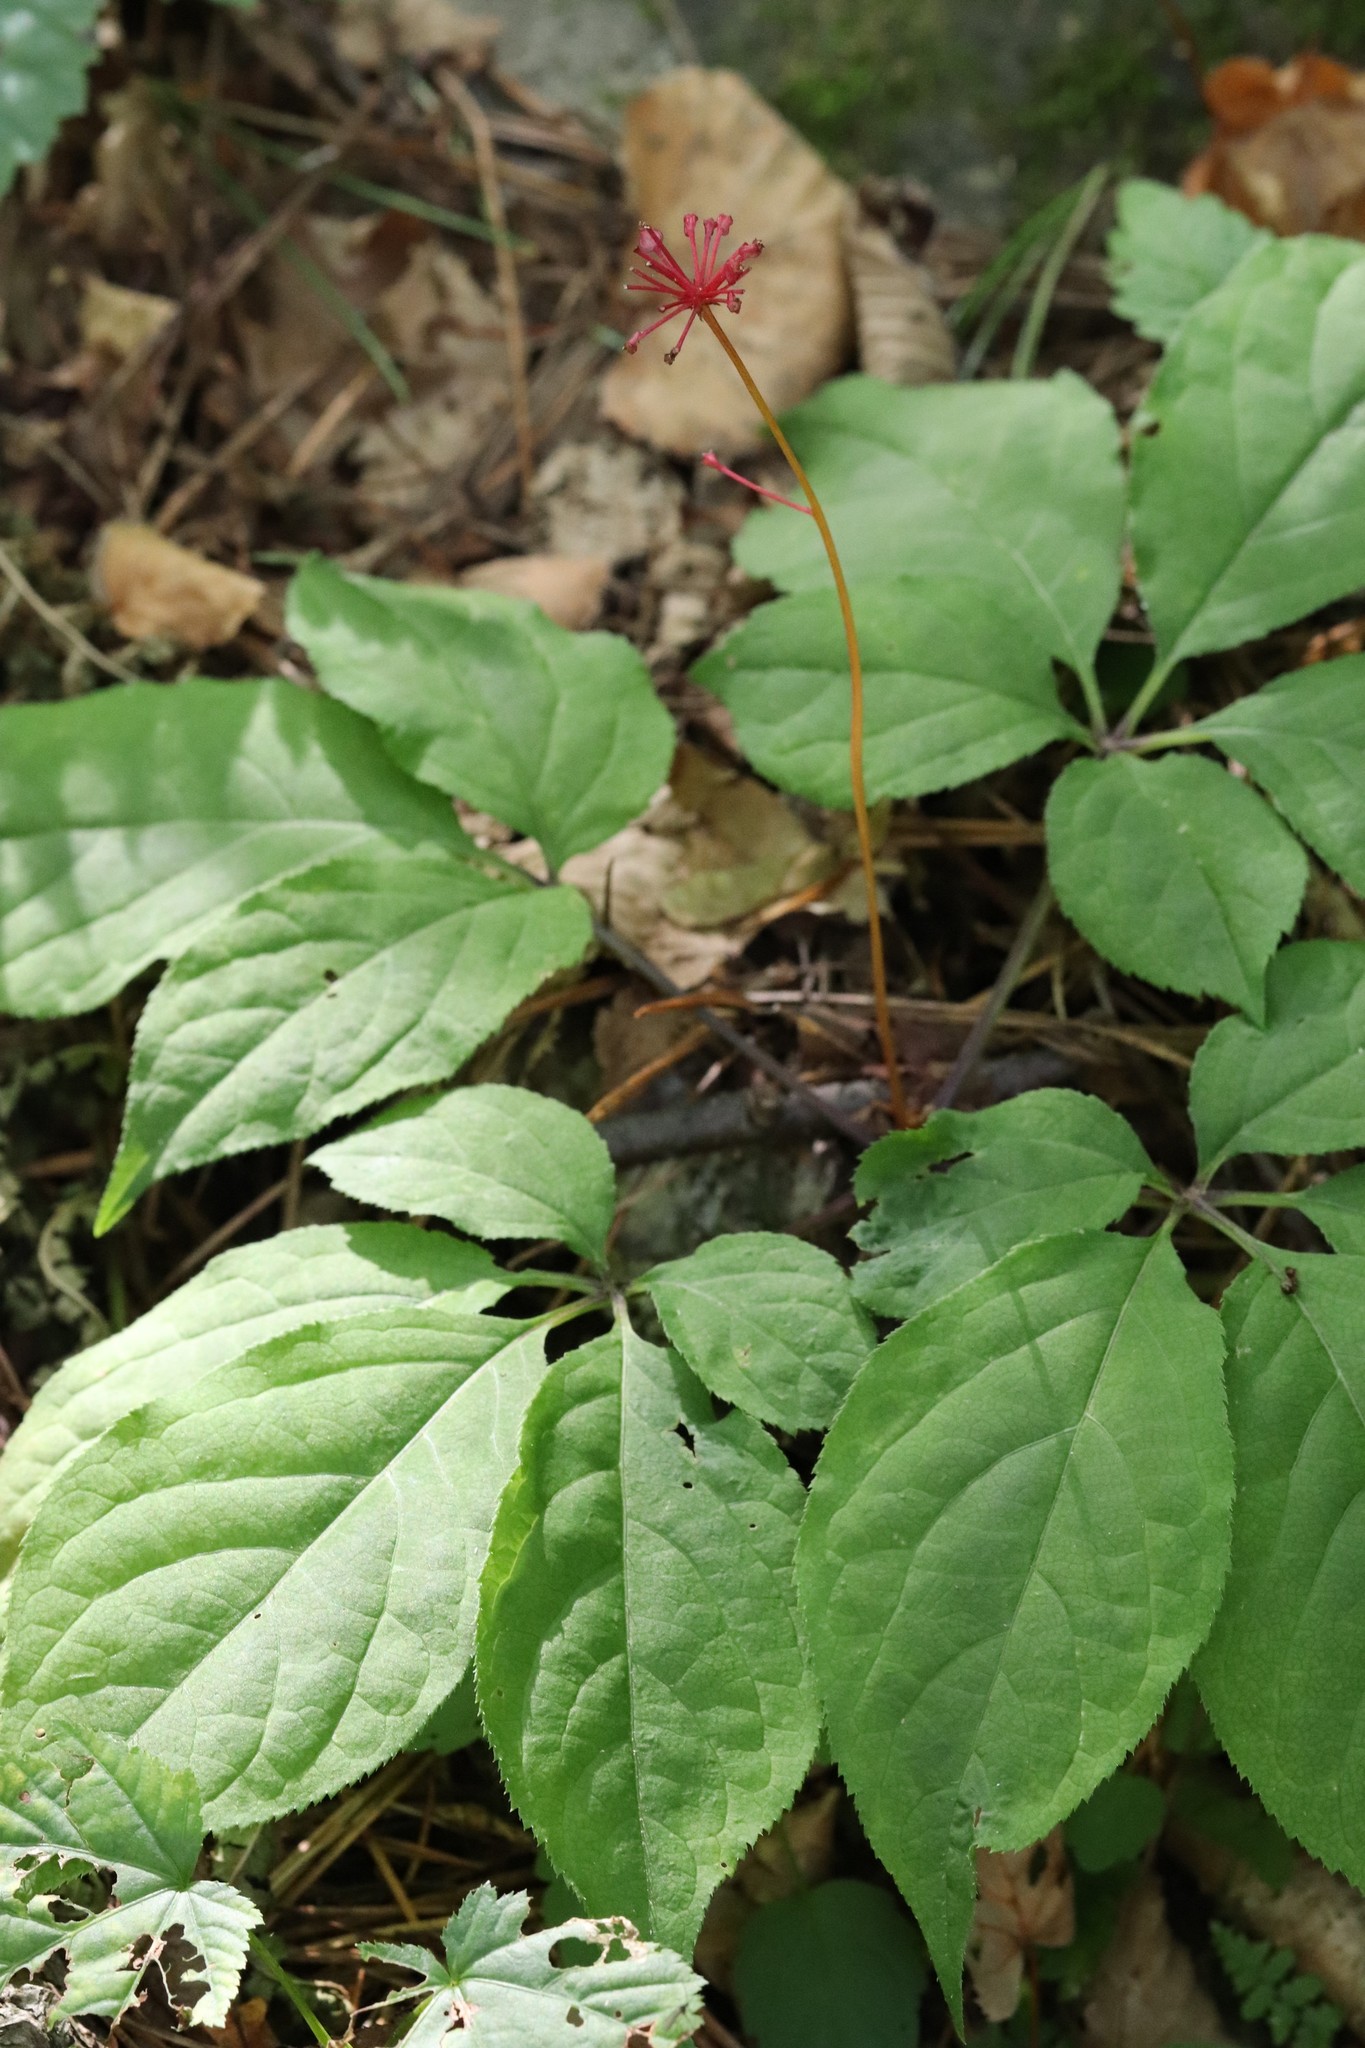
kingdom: Plantae
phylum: Tracheophyta
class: Magnoliopsida
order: Apiales
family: Araliaceae
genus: Panax
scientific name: Panax ginseng
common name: Chinese ginseng
